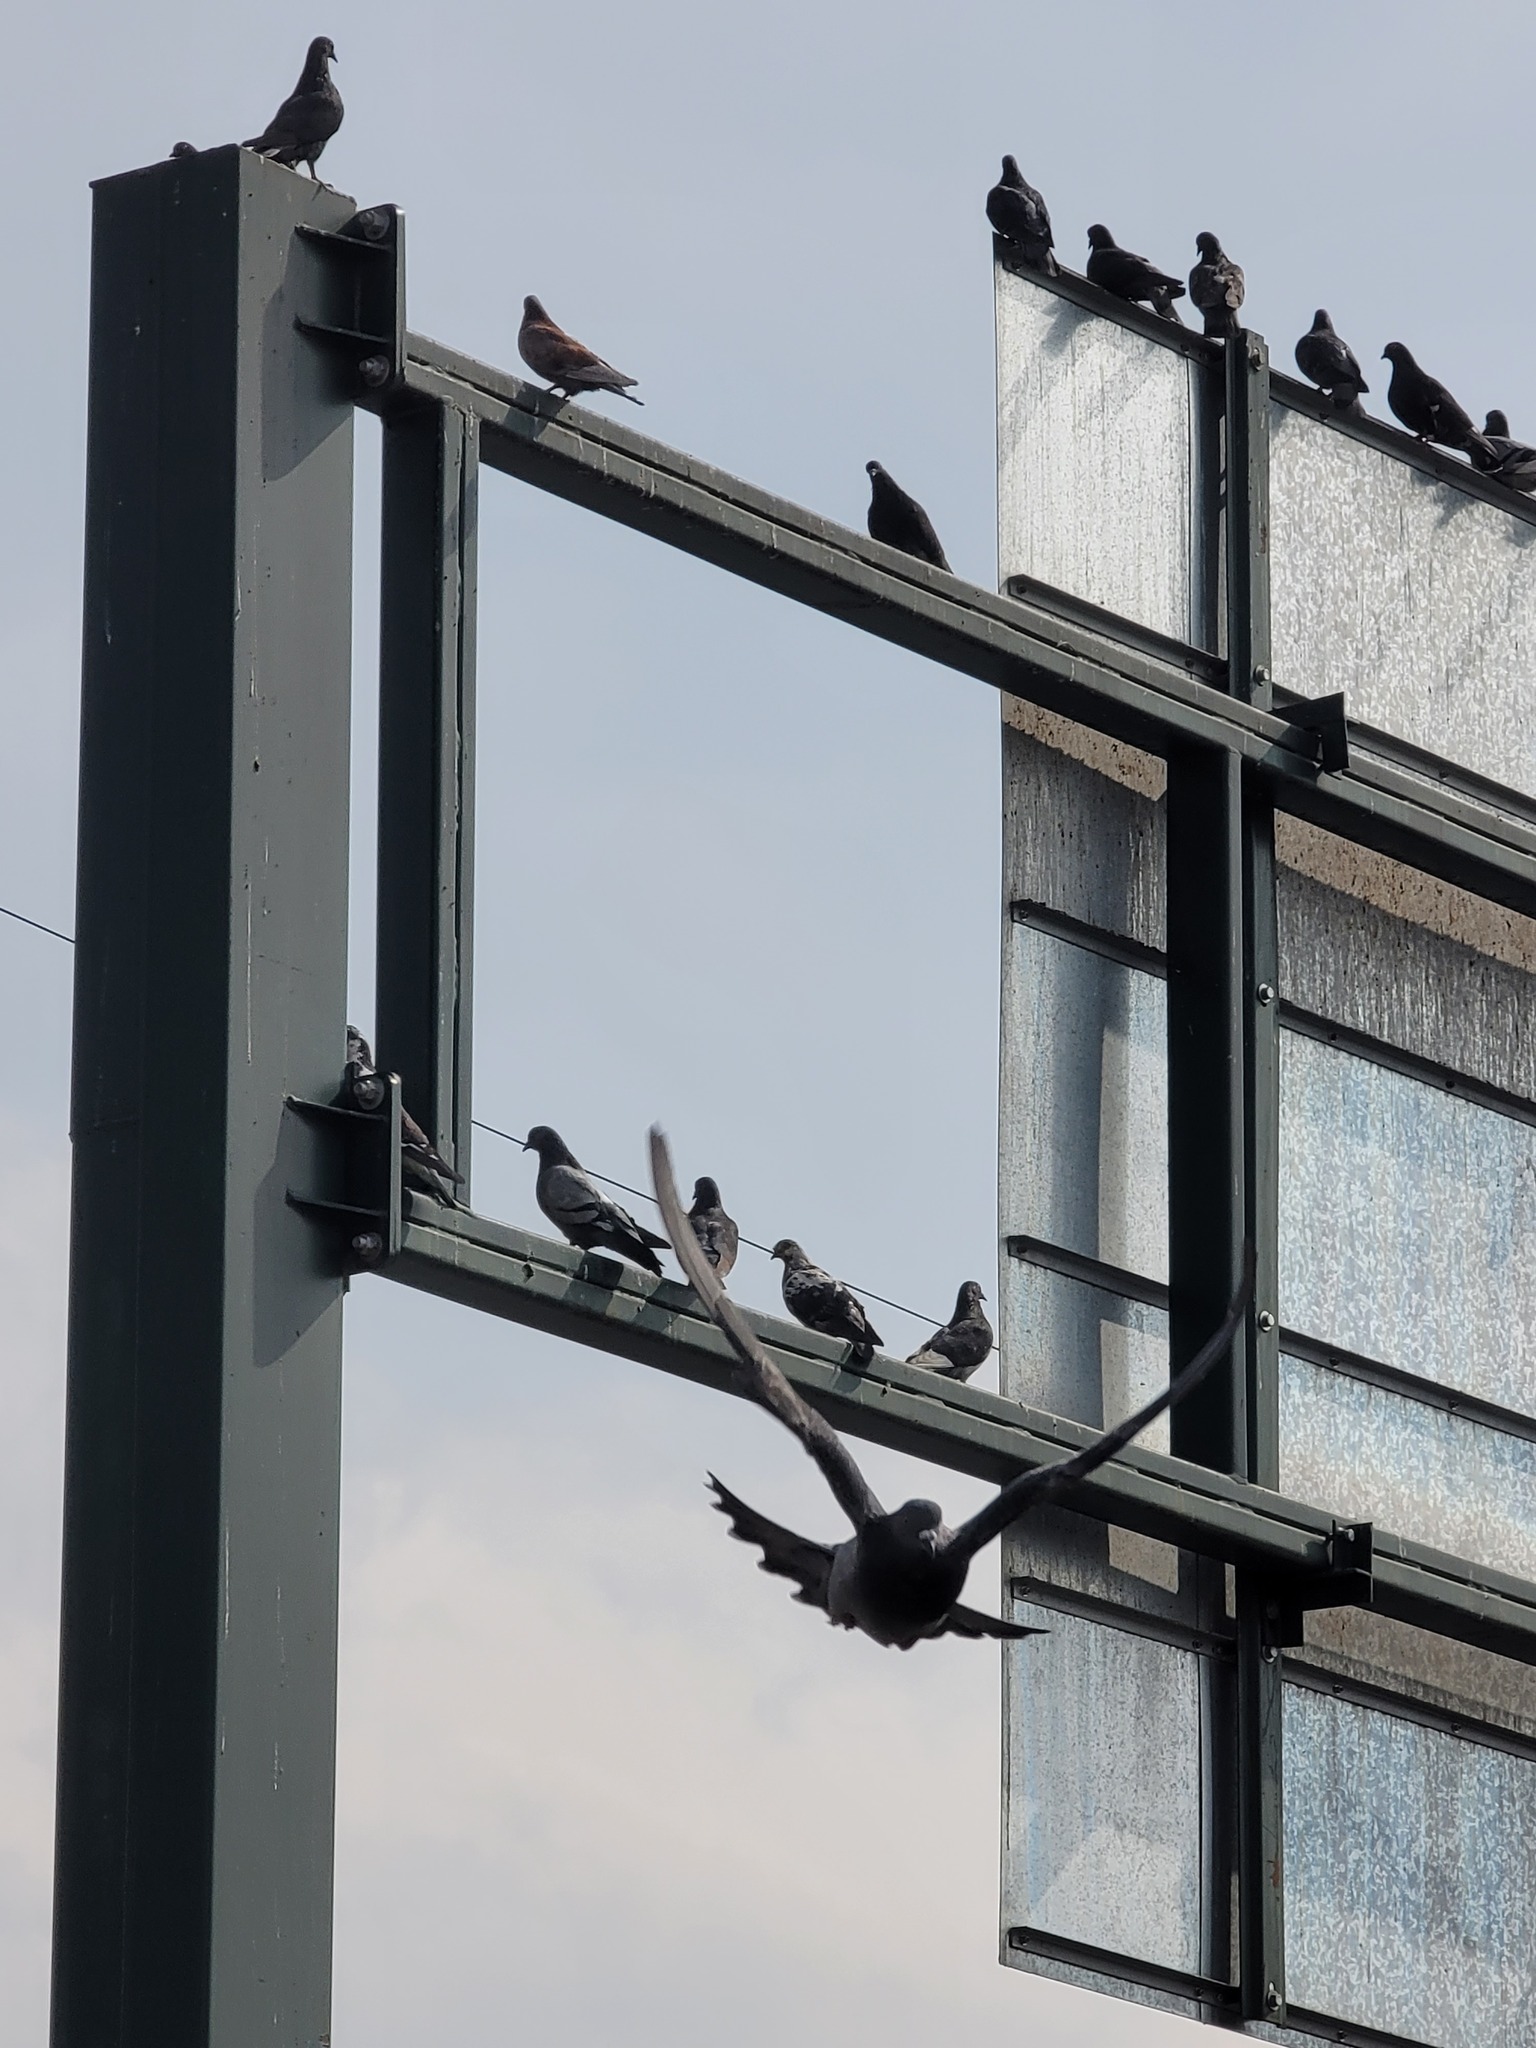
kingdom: Animalia
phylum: Chordata
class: Aves
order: Columbiformes
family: Columbidae
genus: Columba
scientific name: Columba livia
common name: Rock pigeon
